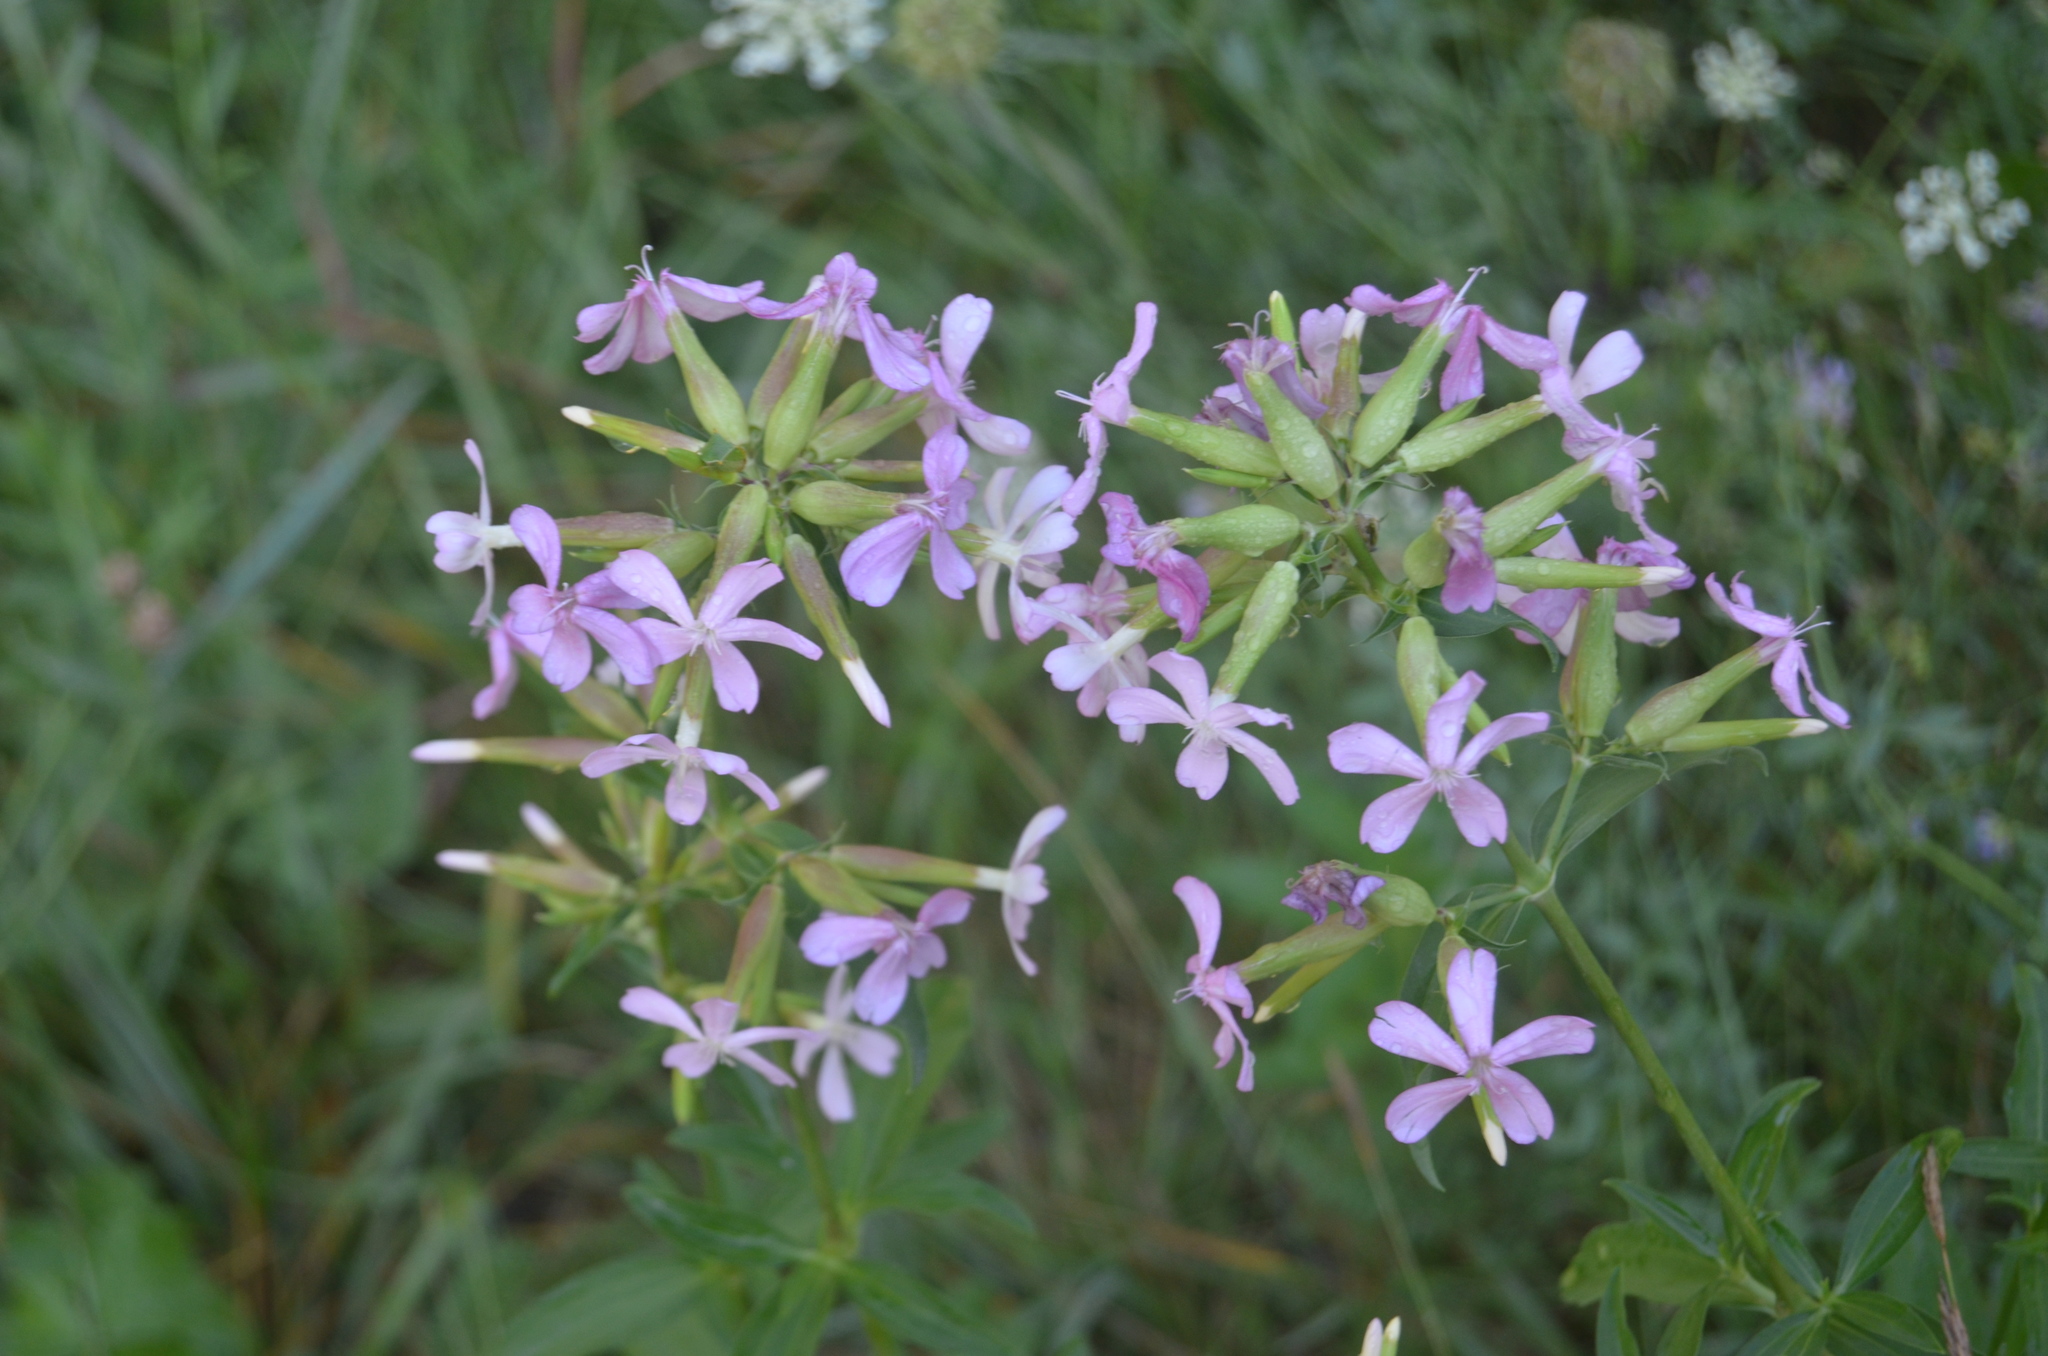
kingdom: Plantae
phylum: Tracheophyta
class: Magnoliopsida
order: Caryophyllales
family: Caryophyllaceae
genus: Saponaria
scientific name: Saponaria officinalis
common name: Soapwort
